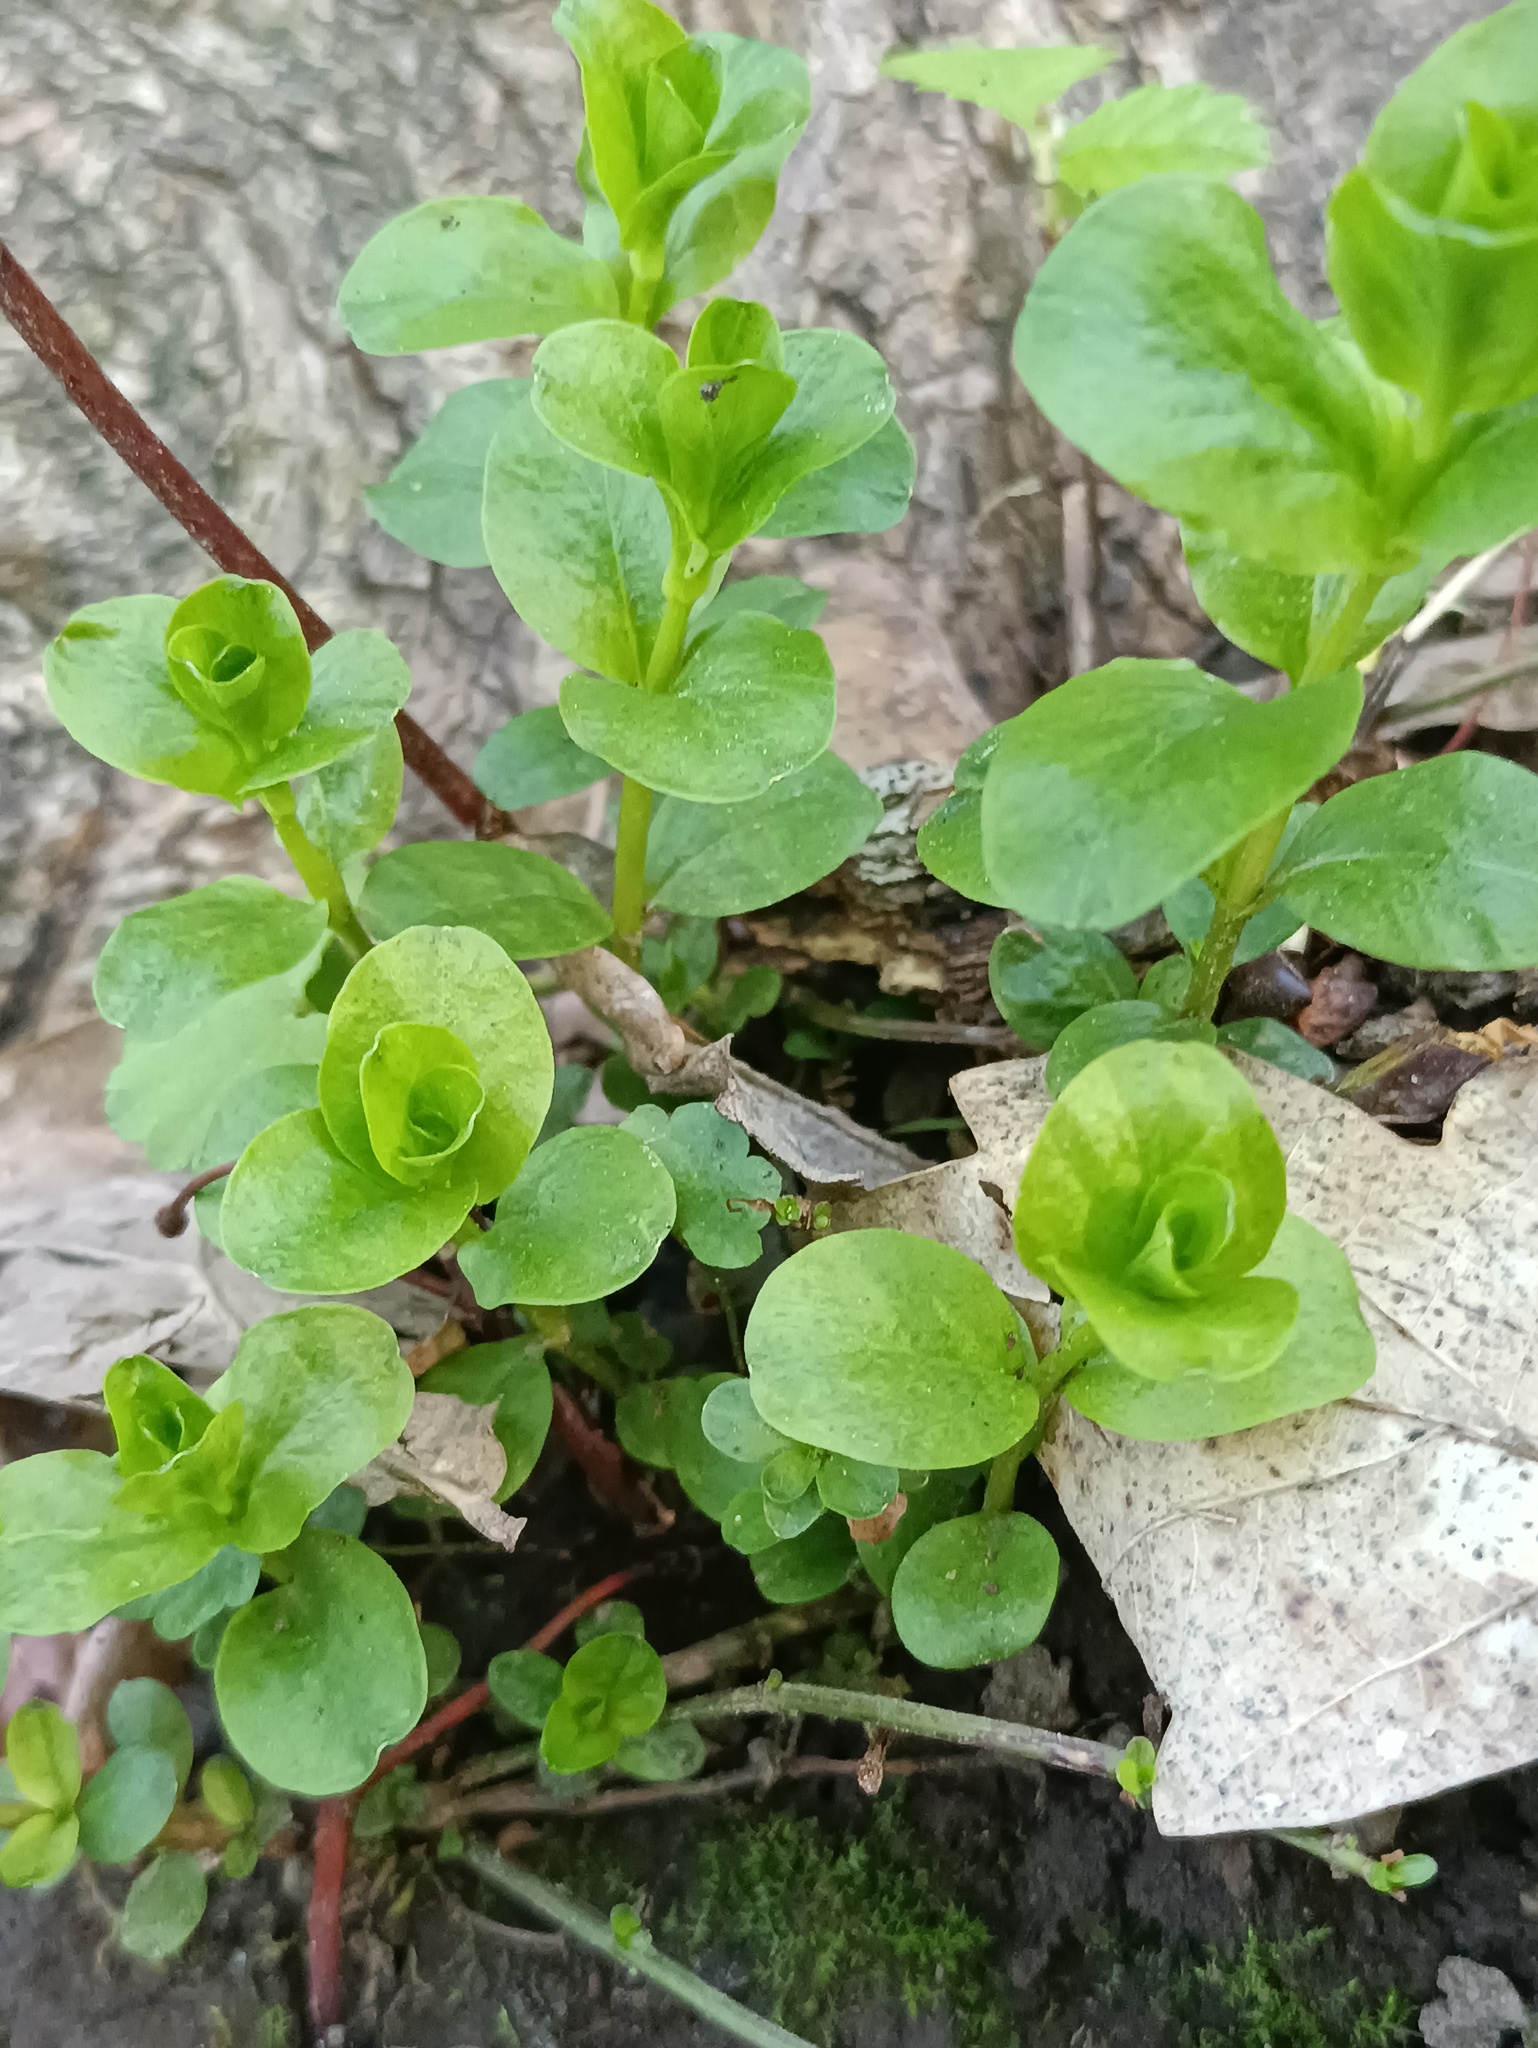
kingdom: Plantae
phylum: Tracheophyta
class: Magnoliopsida
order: Ericales
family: Primulaceae
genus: Lysimachia
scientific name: Lysimachia nummularia
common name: Moneywort
